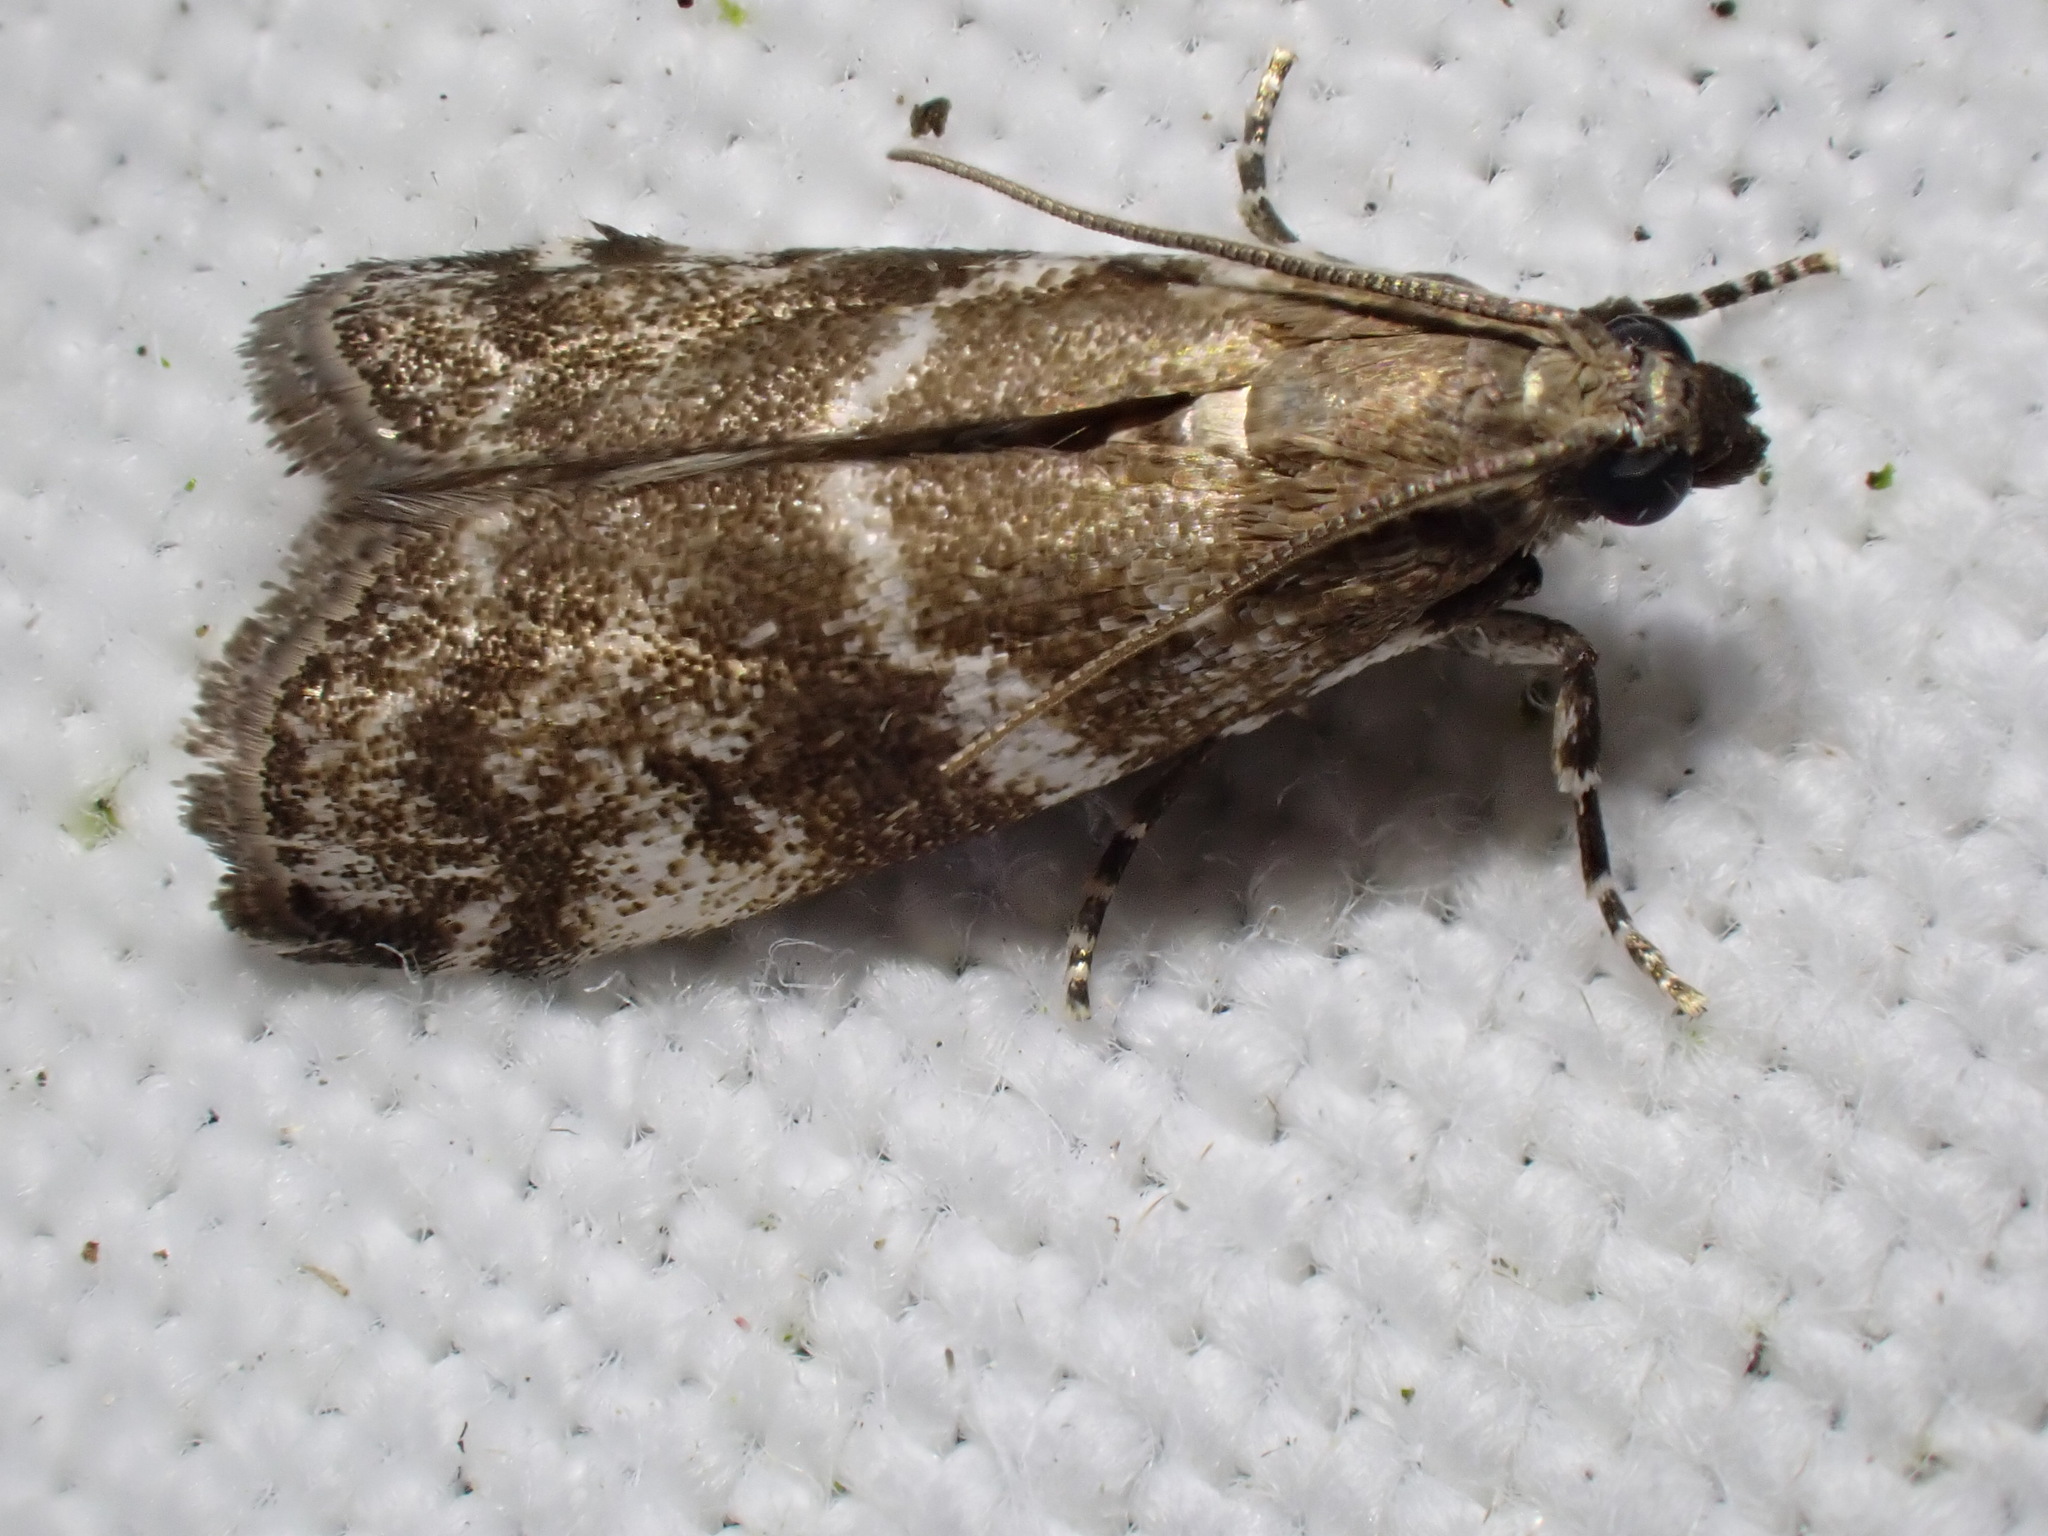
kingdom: Animalia
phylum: Arthropoda
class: Insecta
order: Lepidoptera
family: Pyralidae
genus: Assara
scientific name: Assara terebrella
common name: Dark spruce knot-horn
